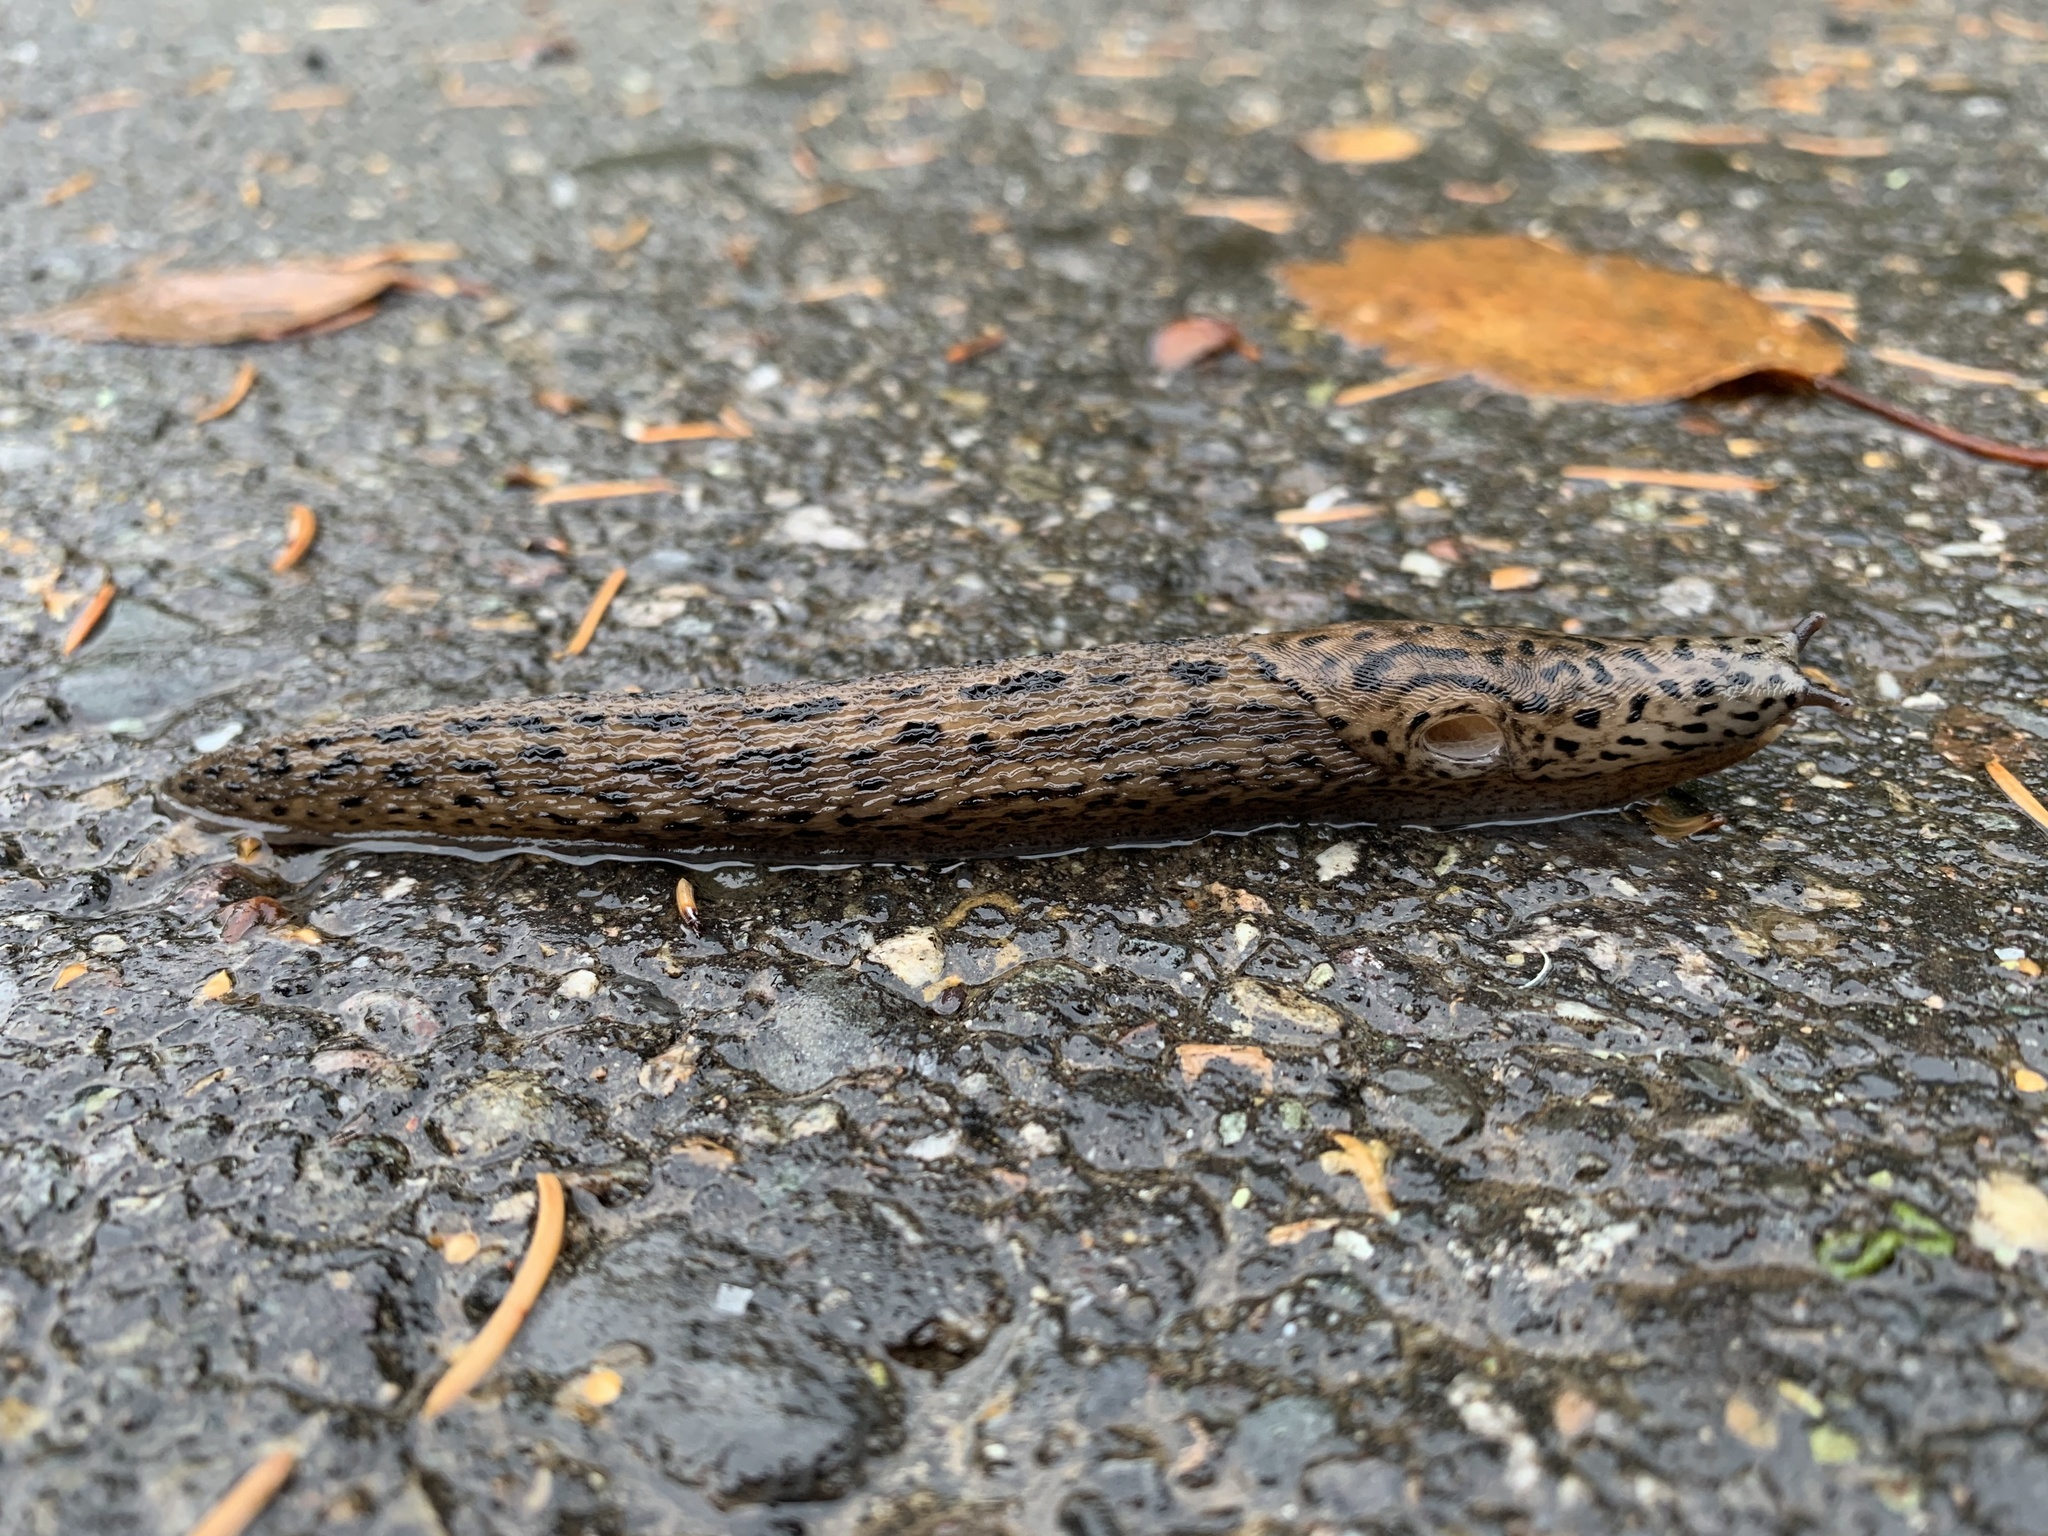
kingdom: Animalia
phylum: Mollusca
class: Gastropoda
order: Stylommatophora
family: Limacidae
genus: Limax
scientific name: Limax maximus
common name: Great grey slug
